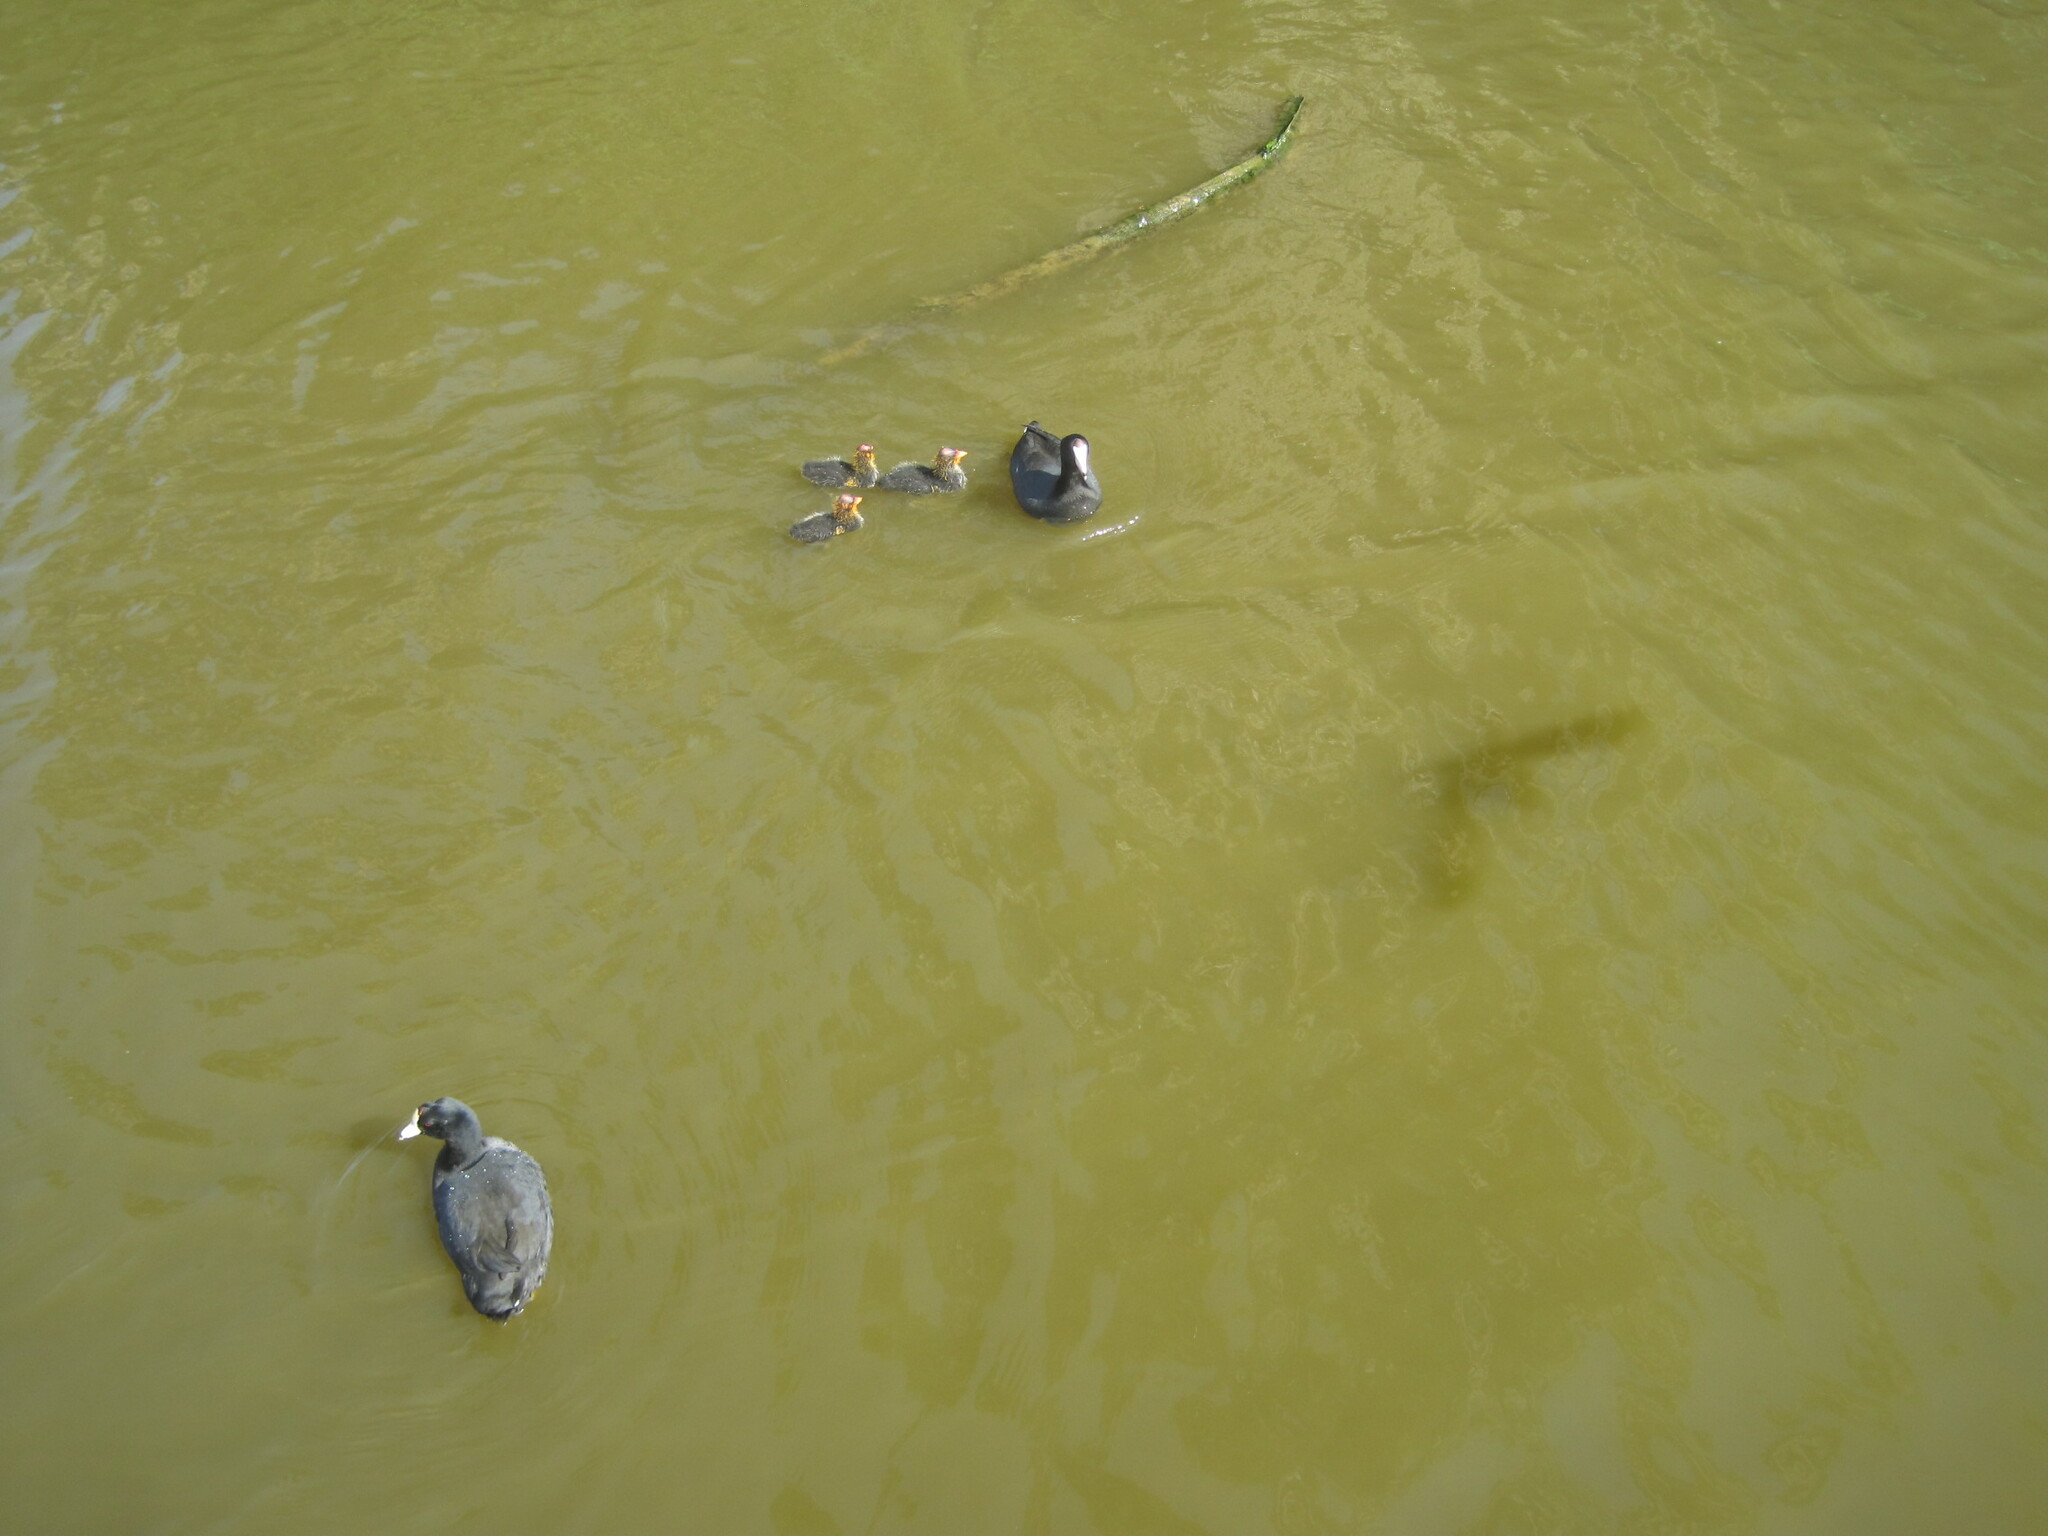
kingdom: Animalia
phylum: Chordata
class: Aves
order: Gruiformes
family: Rallidae
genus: Fulica
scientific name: Fulica americana
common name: American coot
